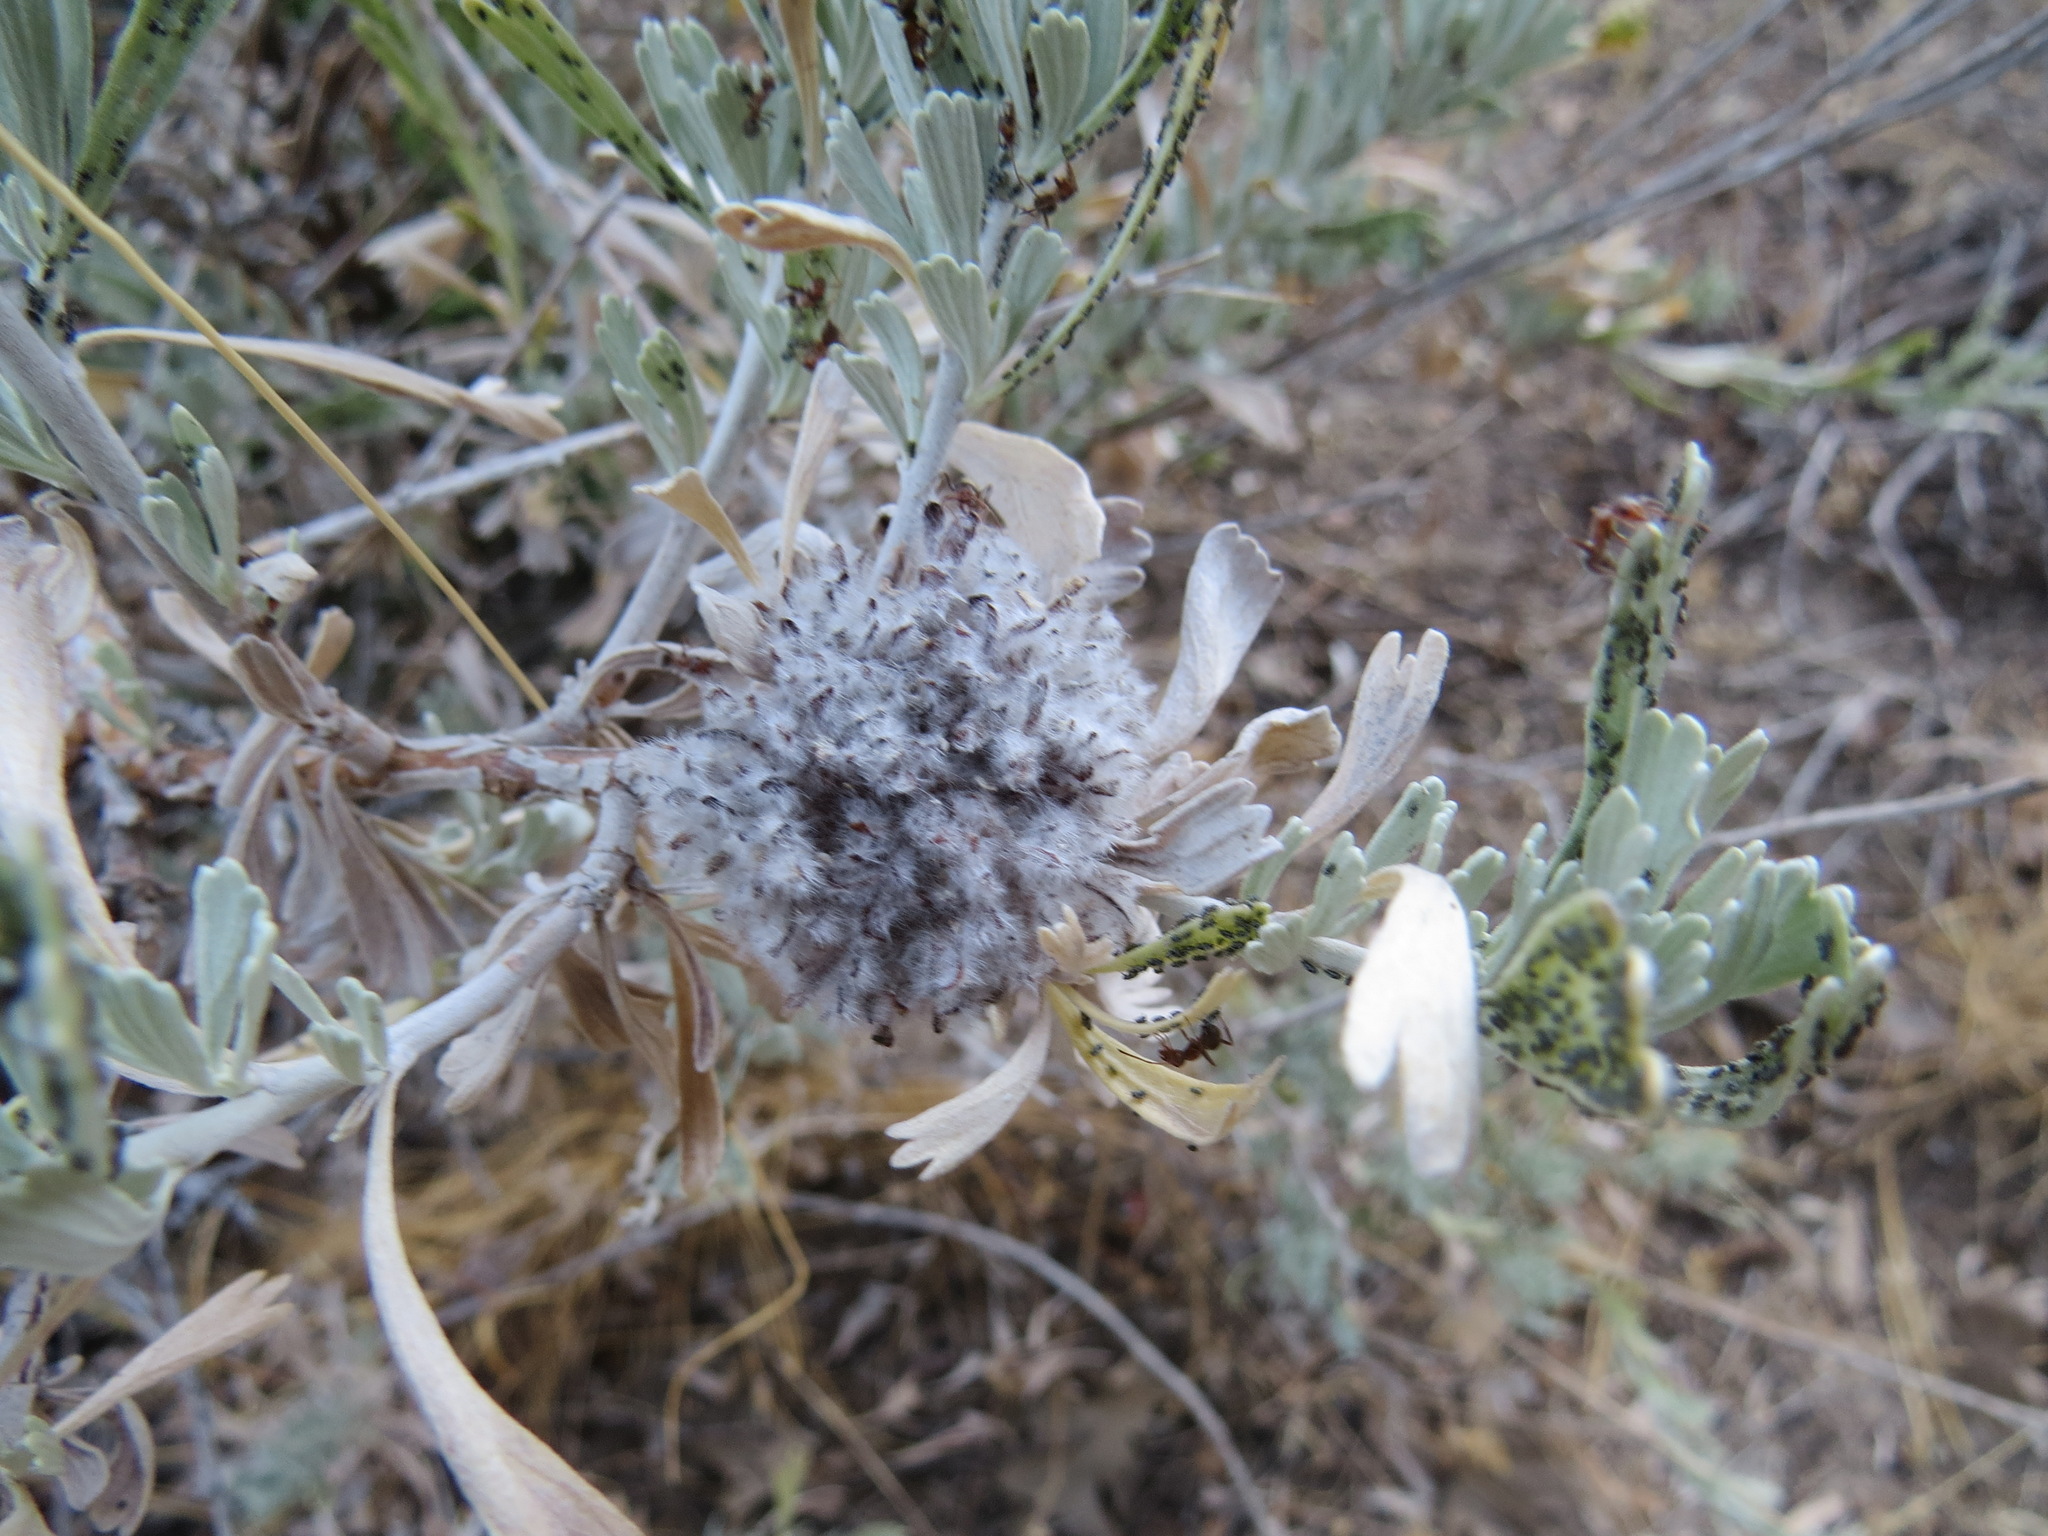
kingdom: Animalia
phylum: Arthropoda
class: Insecta
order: Diptera
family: Cecidomyiidae
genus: Rhopalomyia
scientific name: Rhopalomyia medusirrasa
